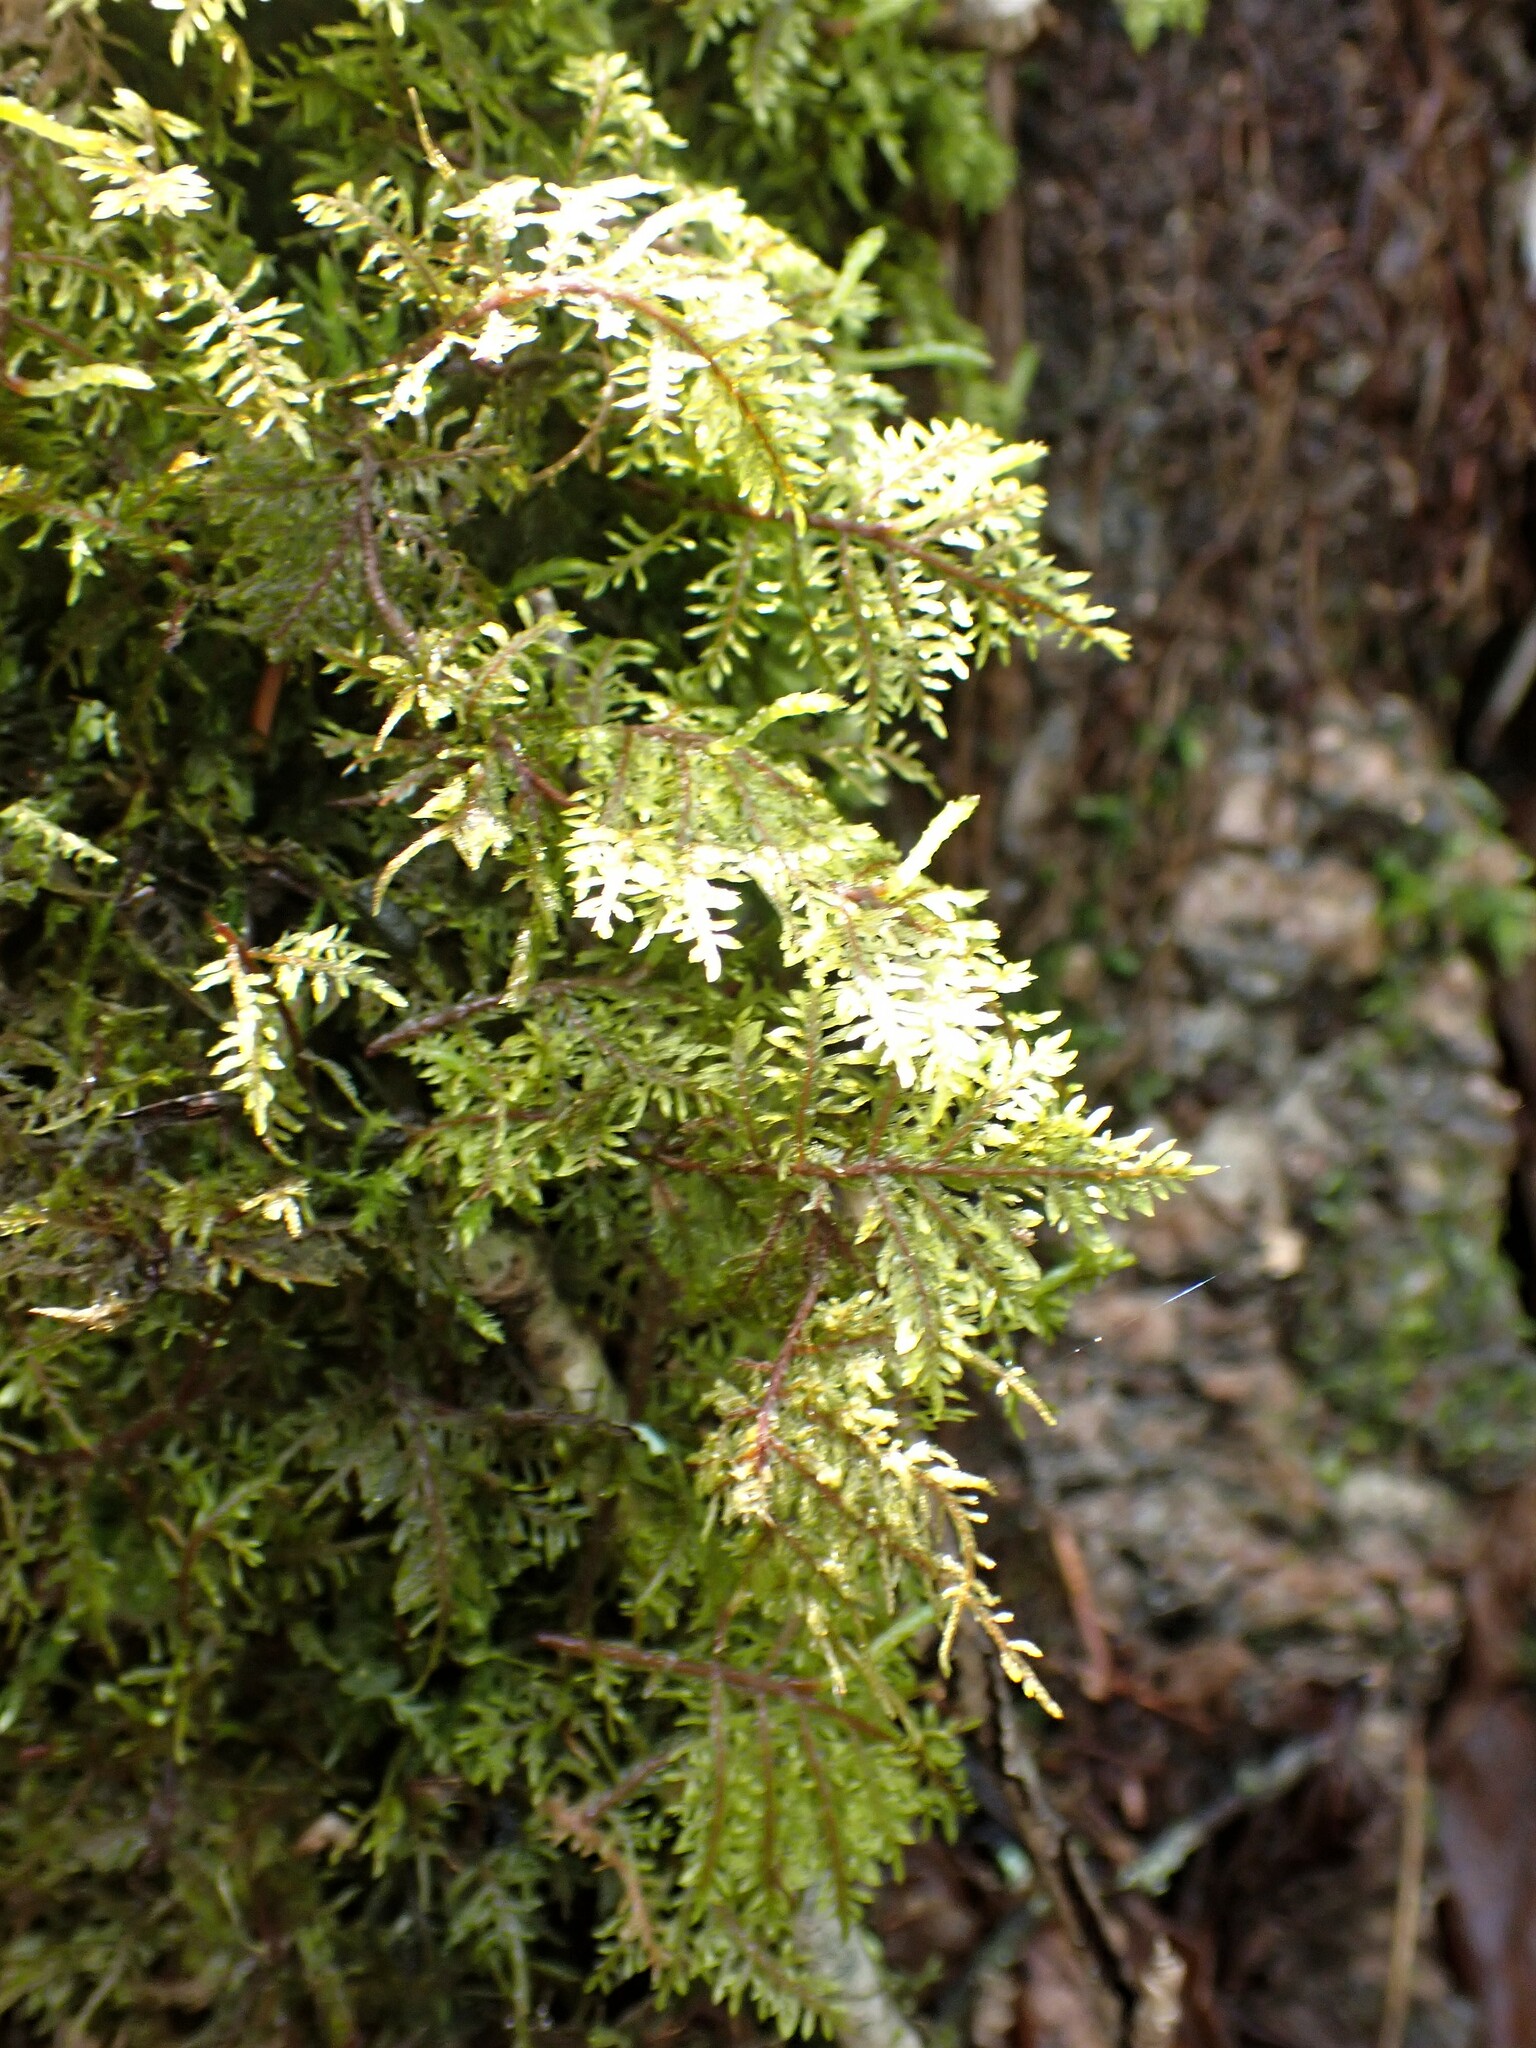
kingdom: Plantae
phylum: Bryophyta
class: Bryopsida
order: Hypnales
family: Hylocomiaceae
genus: Hylocomium
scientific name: Hylocomium splendens
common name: Stairstep moss
